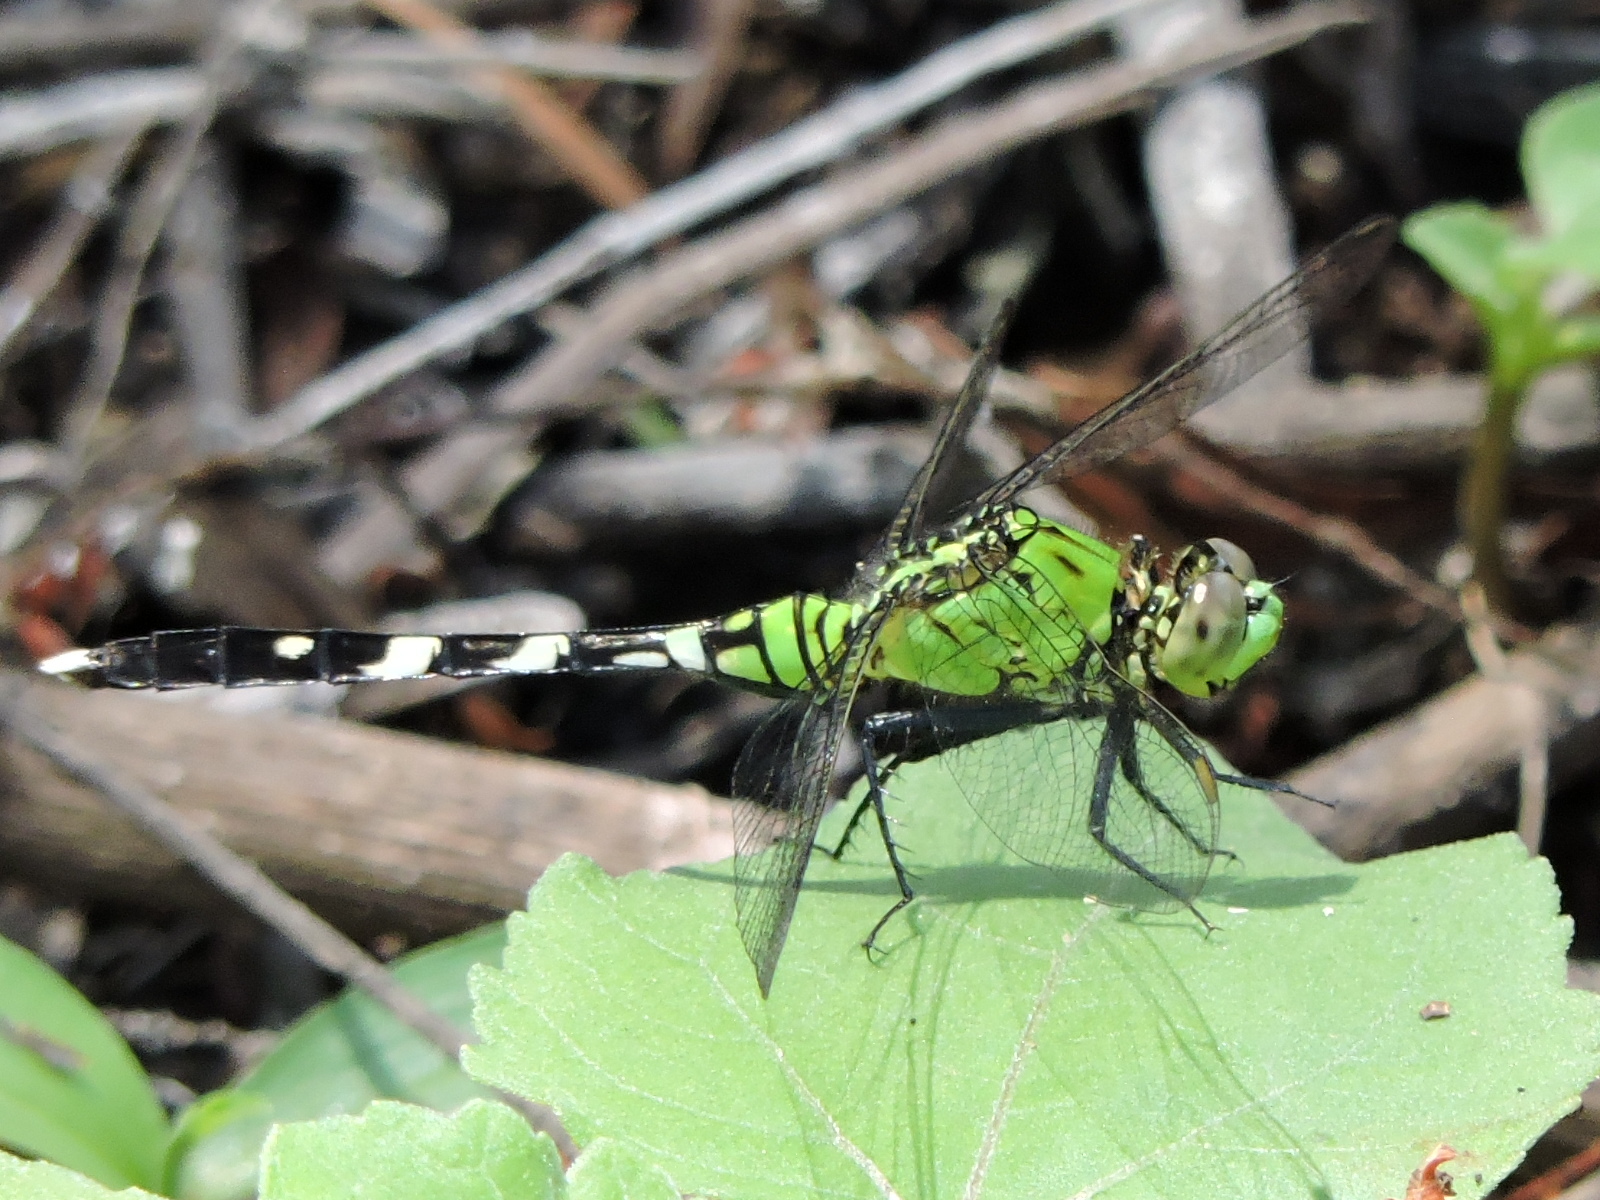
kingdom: Animalia
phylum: Arthropoda
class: Insecta
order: Odonata
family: Libellulidae
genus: Erythemis
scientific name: Erythemis simplicicollis
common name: Eastern pondhawk
